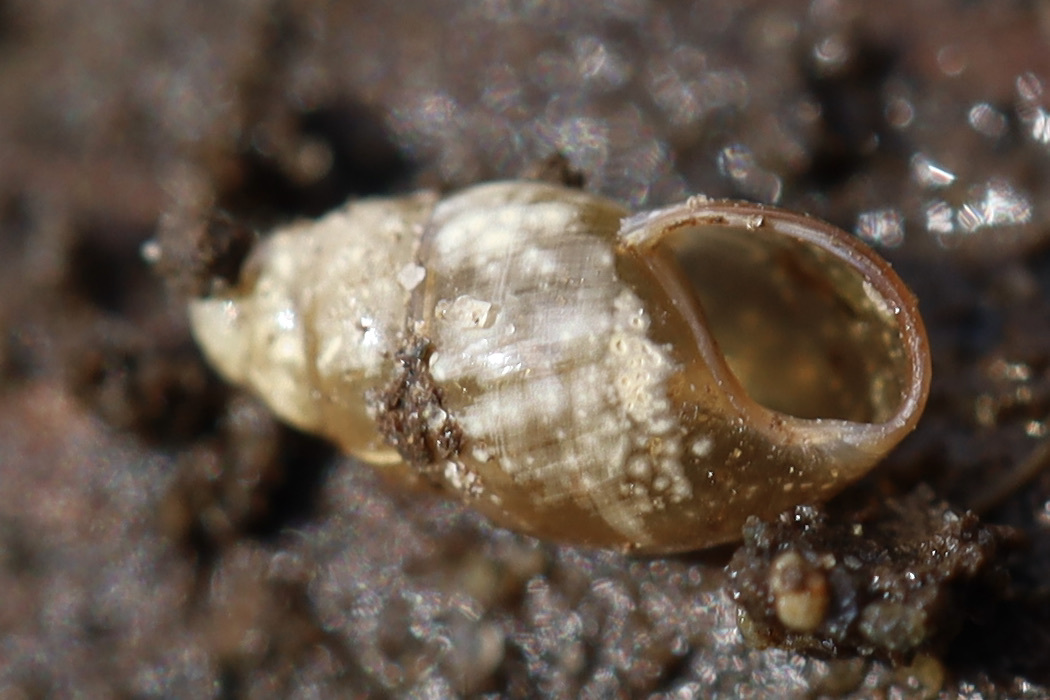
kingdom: Animalia
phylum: Mollusca
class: Gastropoda
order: Stylommatophora
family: Cochlicopidae
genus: Cochlicopa
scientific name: Cochlicopa lubrica
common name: Glossy pillar snail
